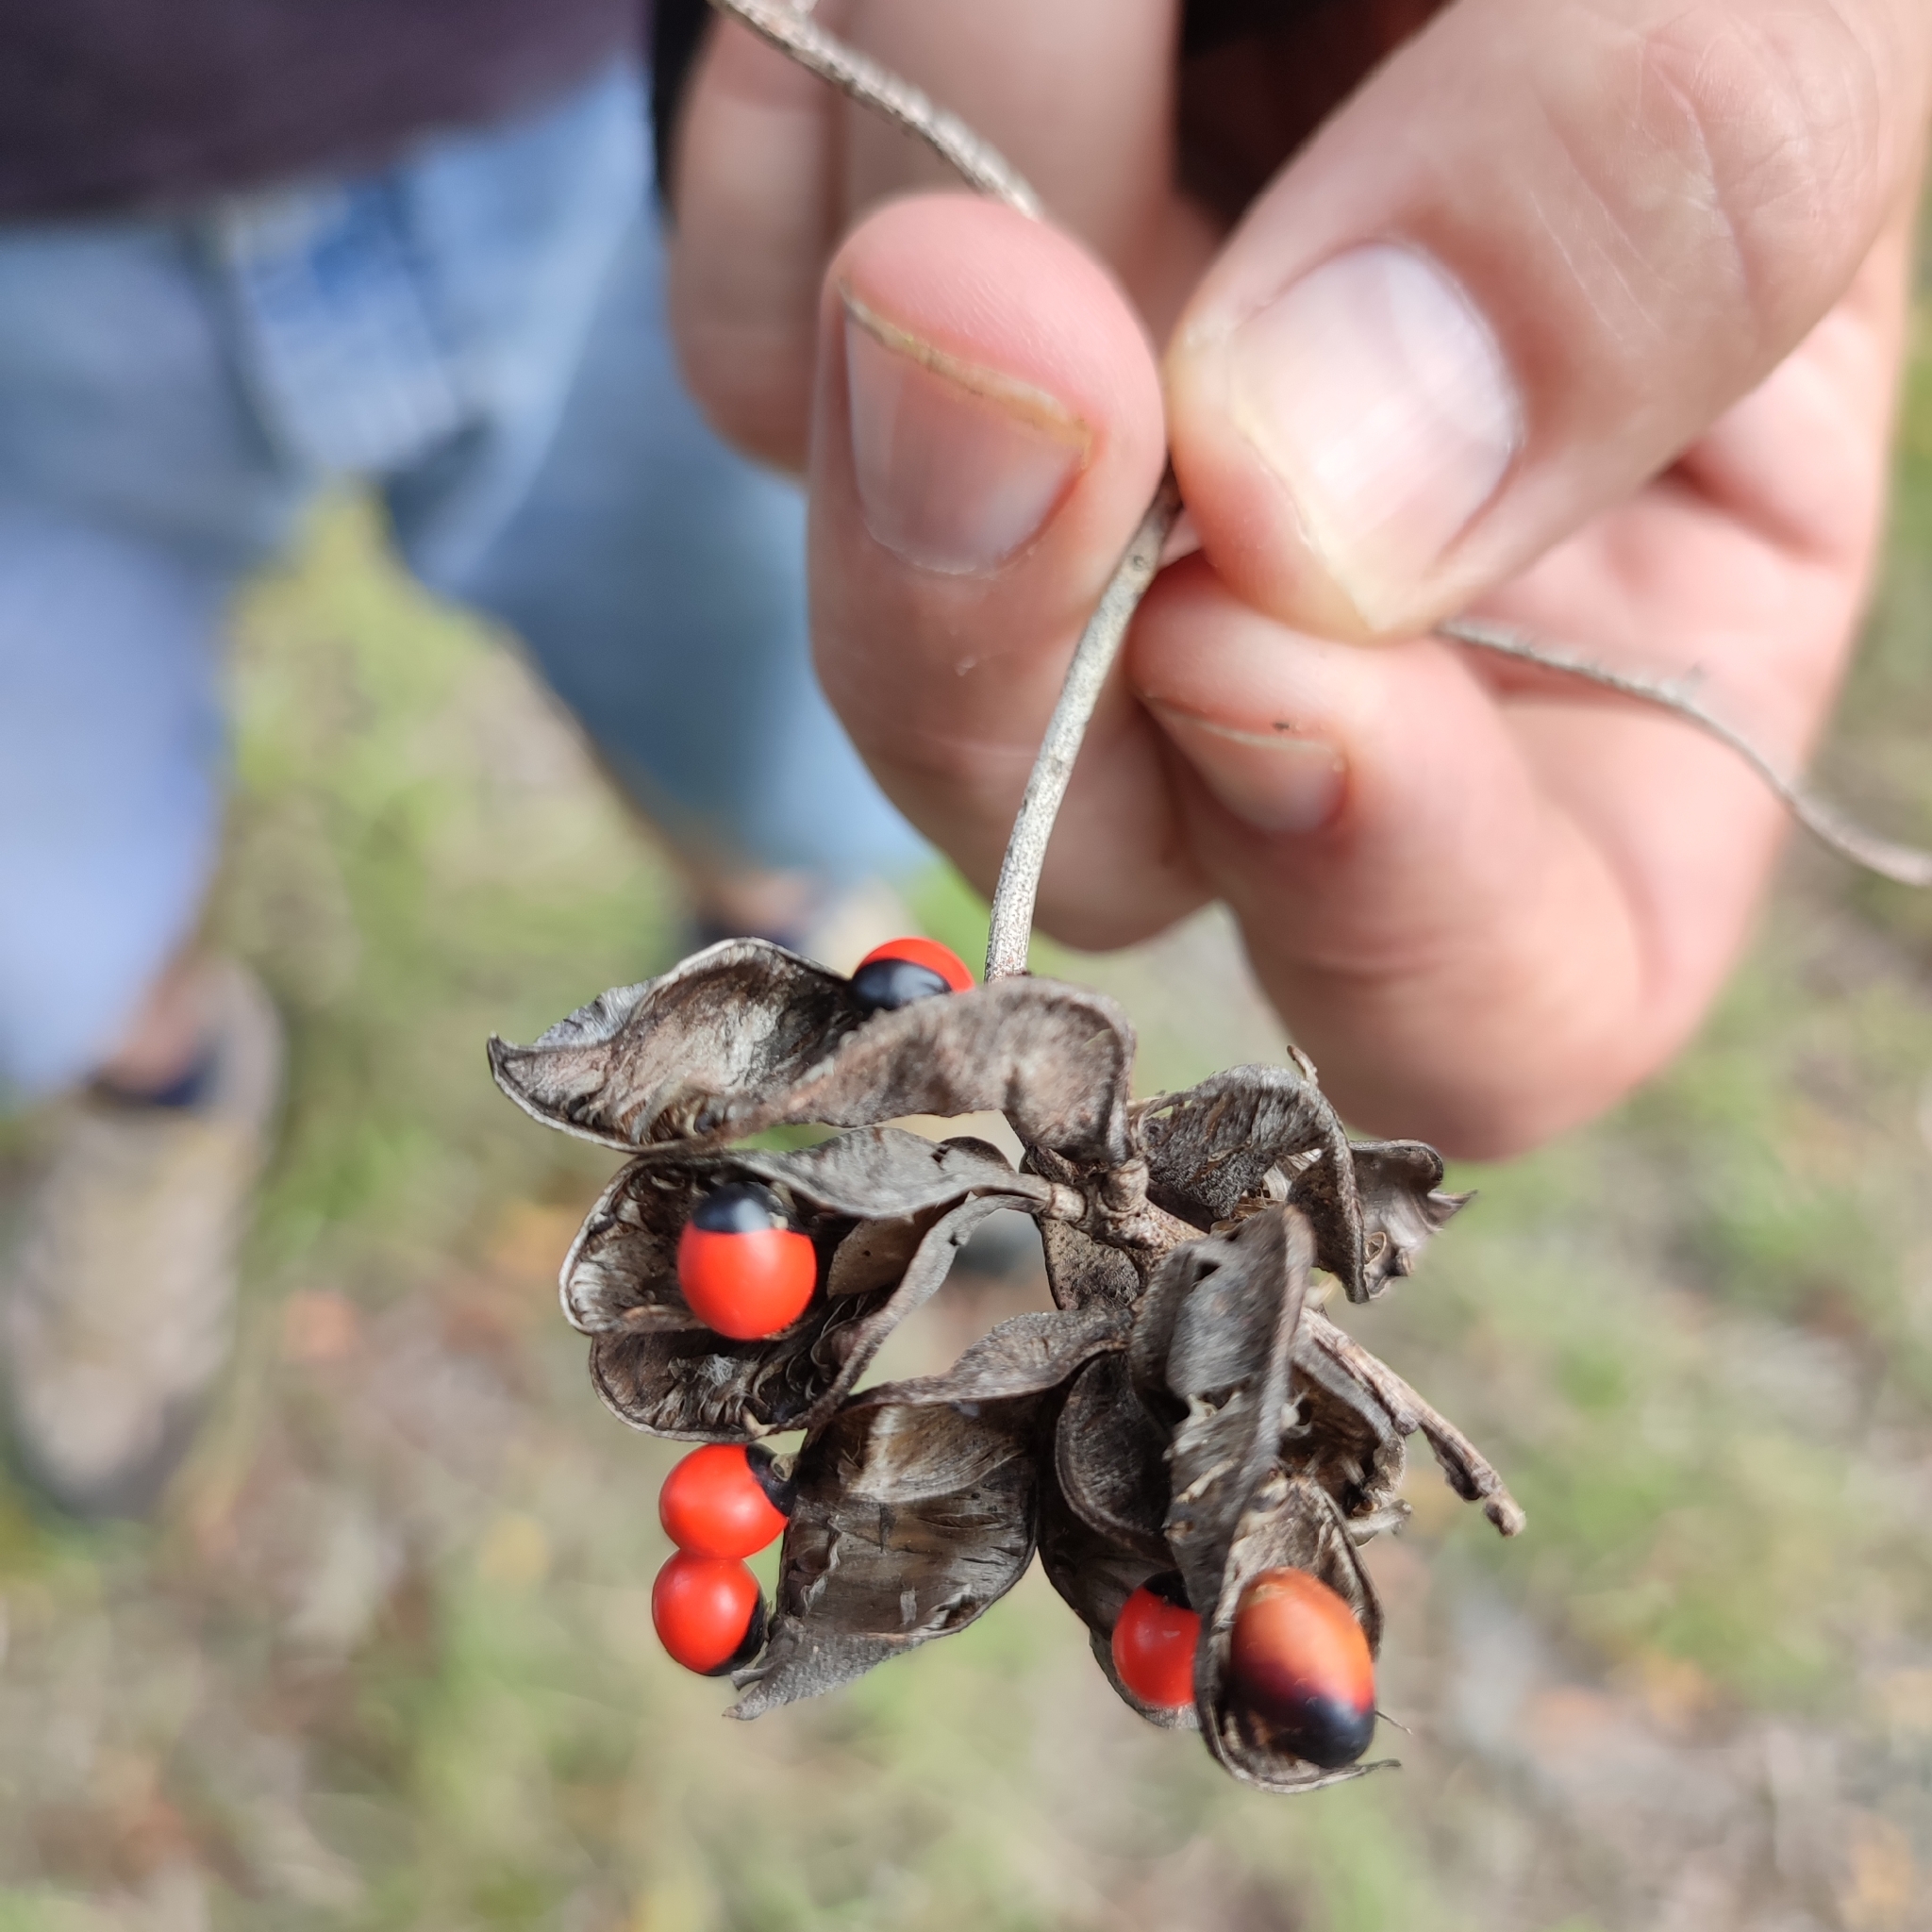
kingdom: Plantae
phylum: Tracheophyta
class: Magnoliopsida
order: Fabales
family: Fabaceae
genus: Abrus
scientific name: Abrus precatorius
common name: Rosarypea
